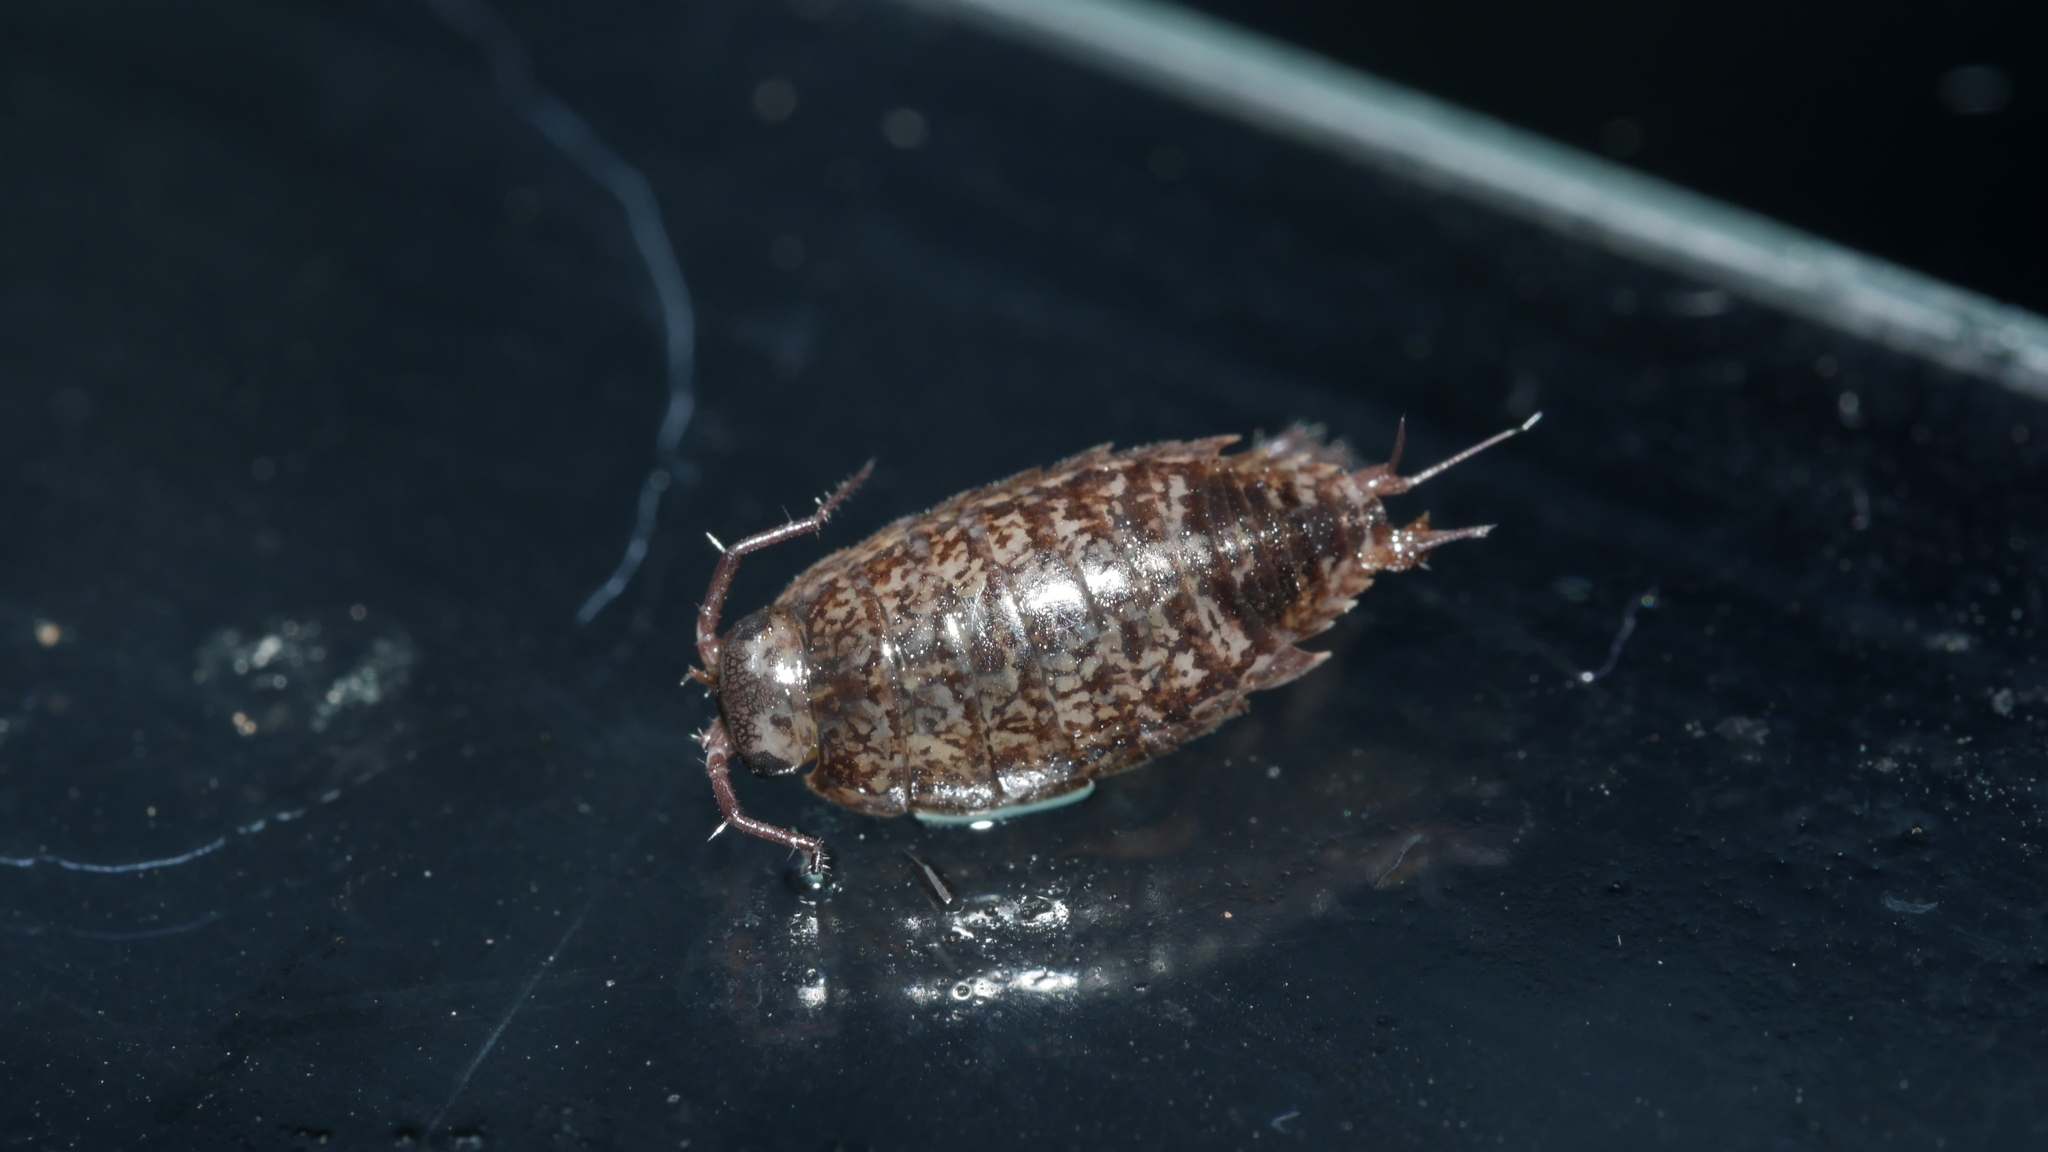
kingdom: Animalia
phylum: Arthropoda
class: Malacostraca
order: Isopoda
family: Ligiidae
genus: Ligidium
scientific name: Ligidium elrodii
